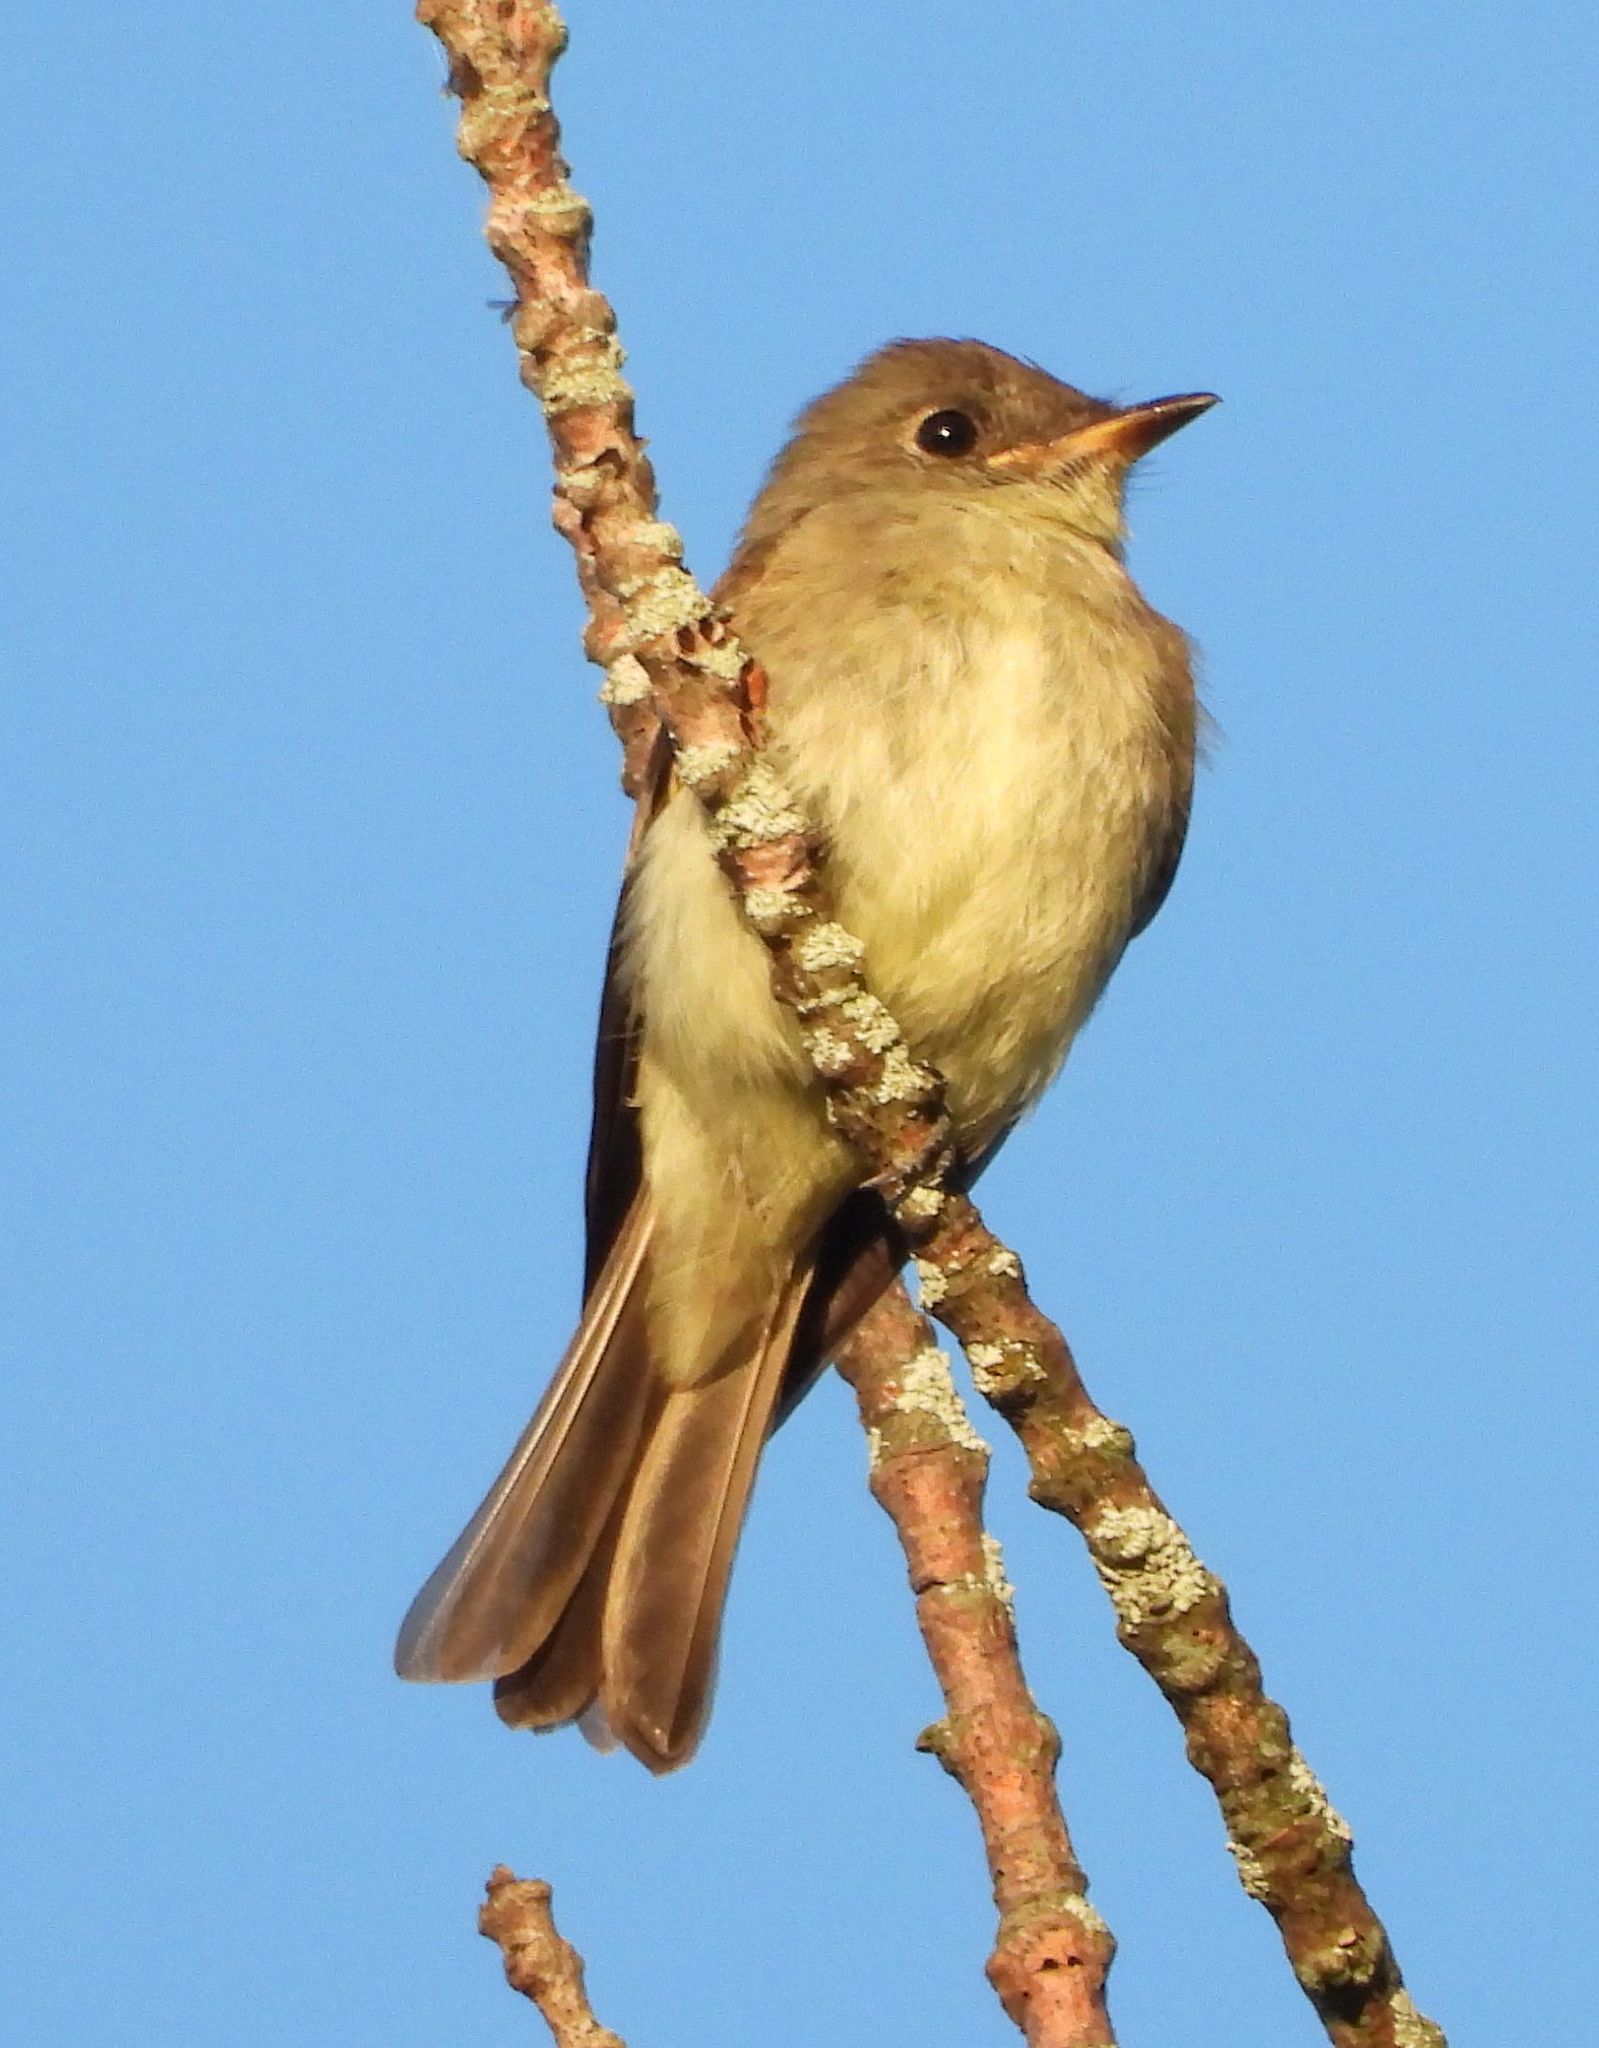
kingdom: Animalia
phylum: Chordata
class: Aves
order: Passeriformes
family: Tyrannidae
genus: Contopus
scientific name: Contopus virens
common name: Eastern wood-pewee
